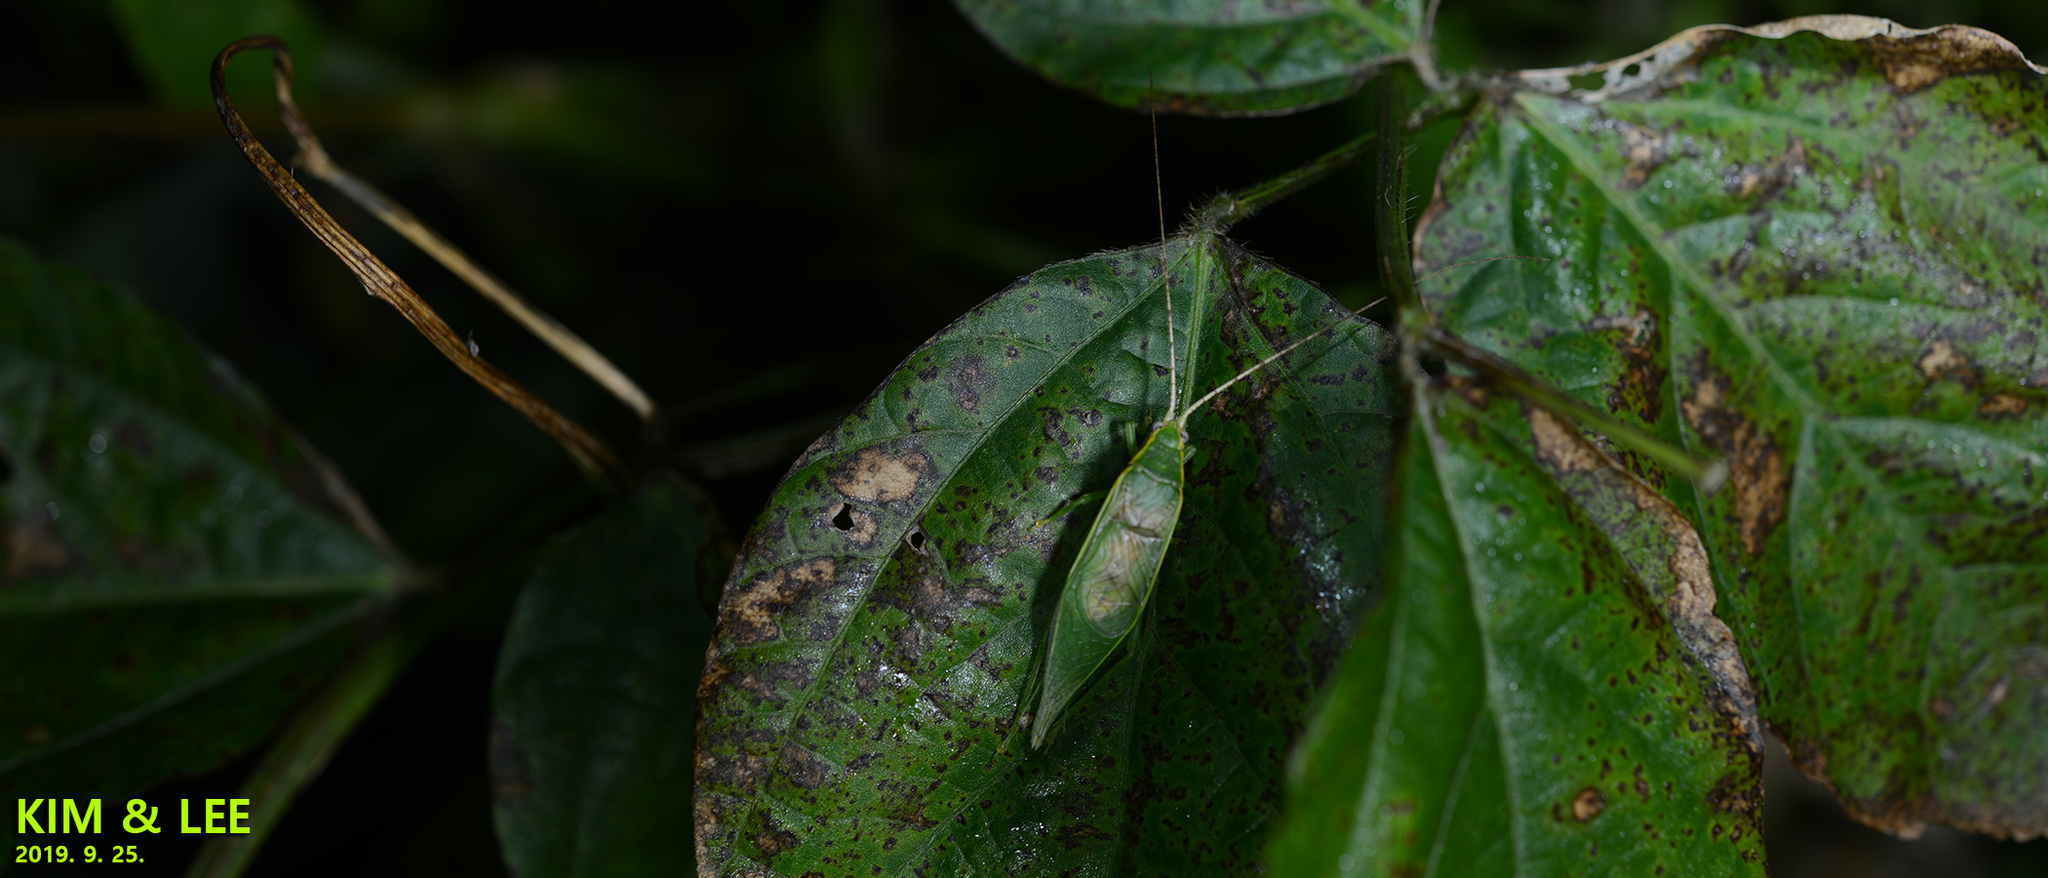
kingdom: Animalia
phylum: Arthropoda
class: Insecta
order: Orthoptera
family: Gryllidae
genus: Truljalia
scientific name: Truljalia hibinonis
